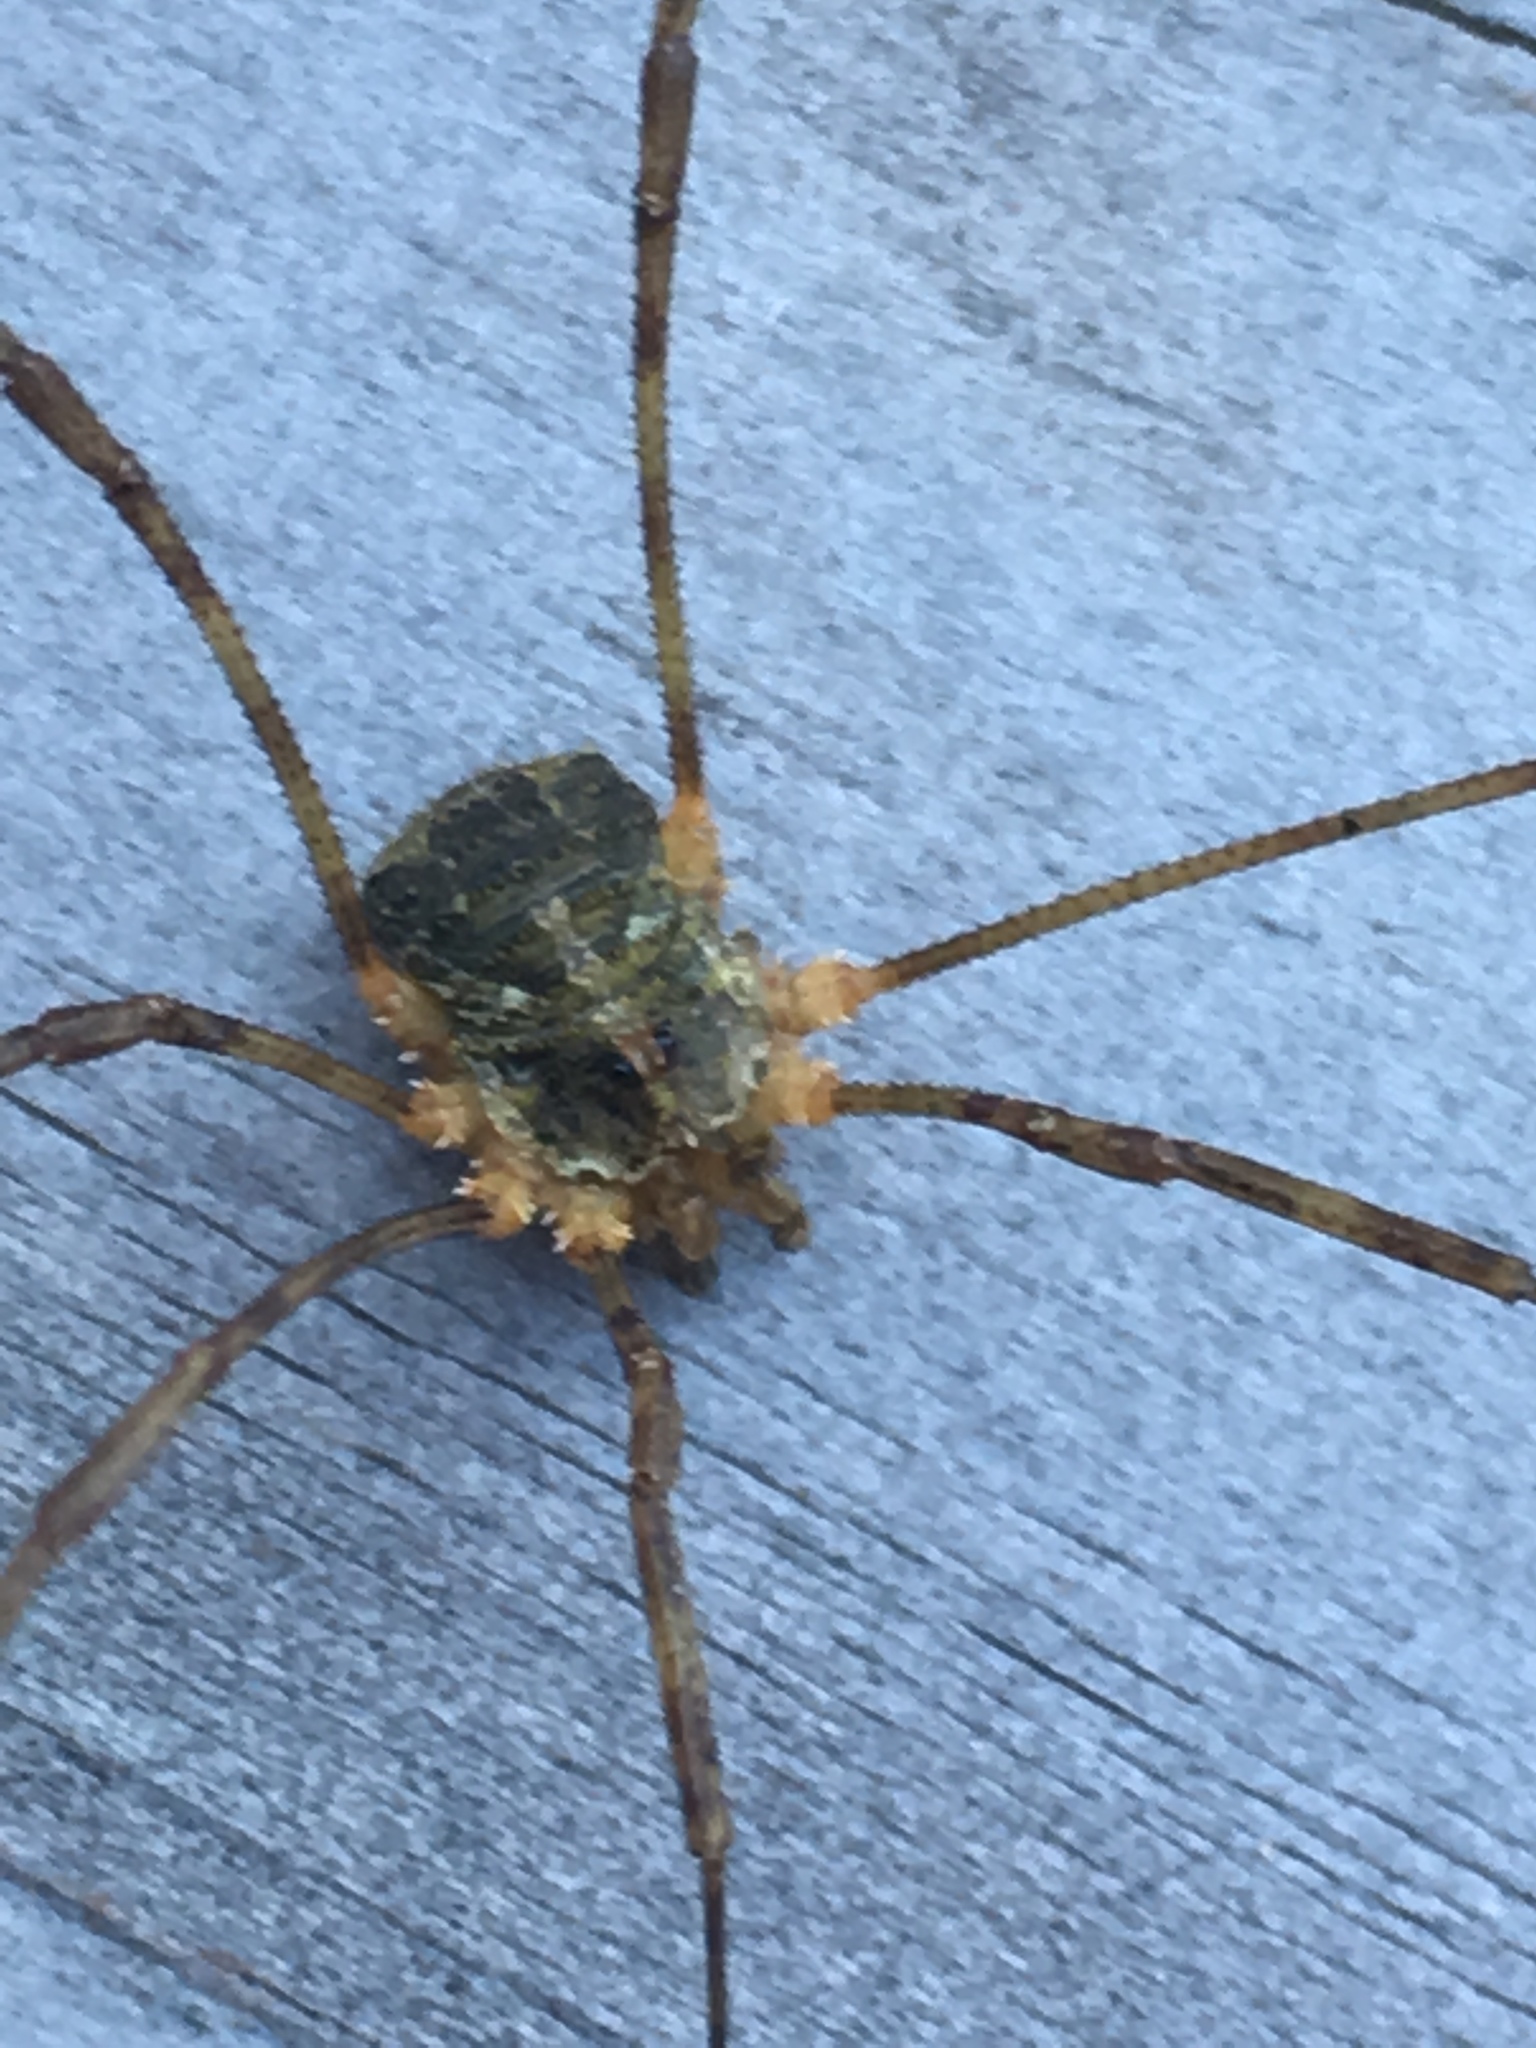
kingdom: Animalia
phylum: Arthropoda
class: Arachnida
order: Opiliones
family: Phalangiidae
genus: Lacinius
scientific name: Lacinius dentiger
